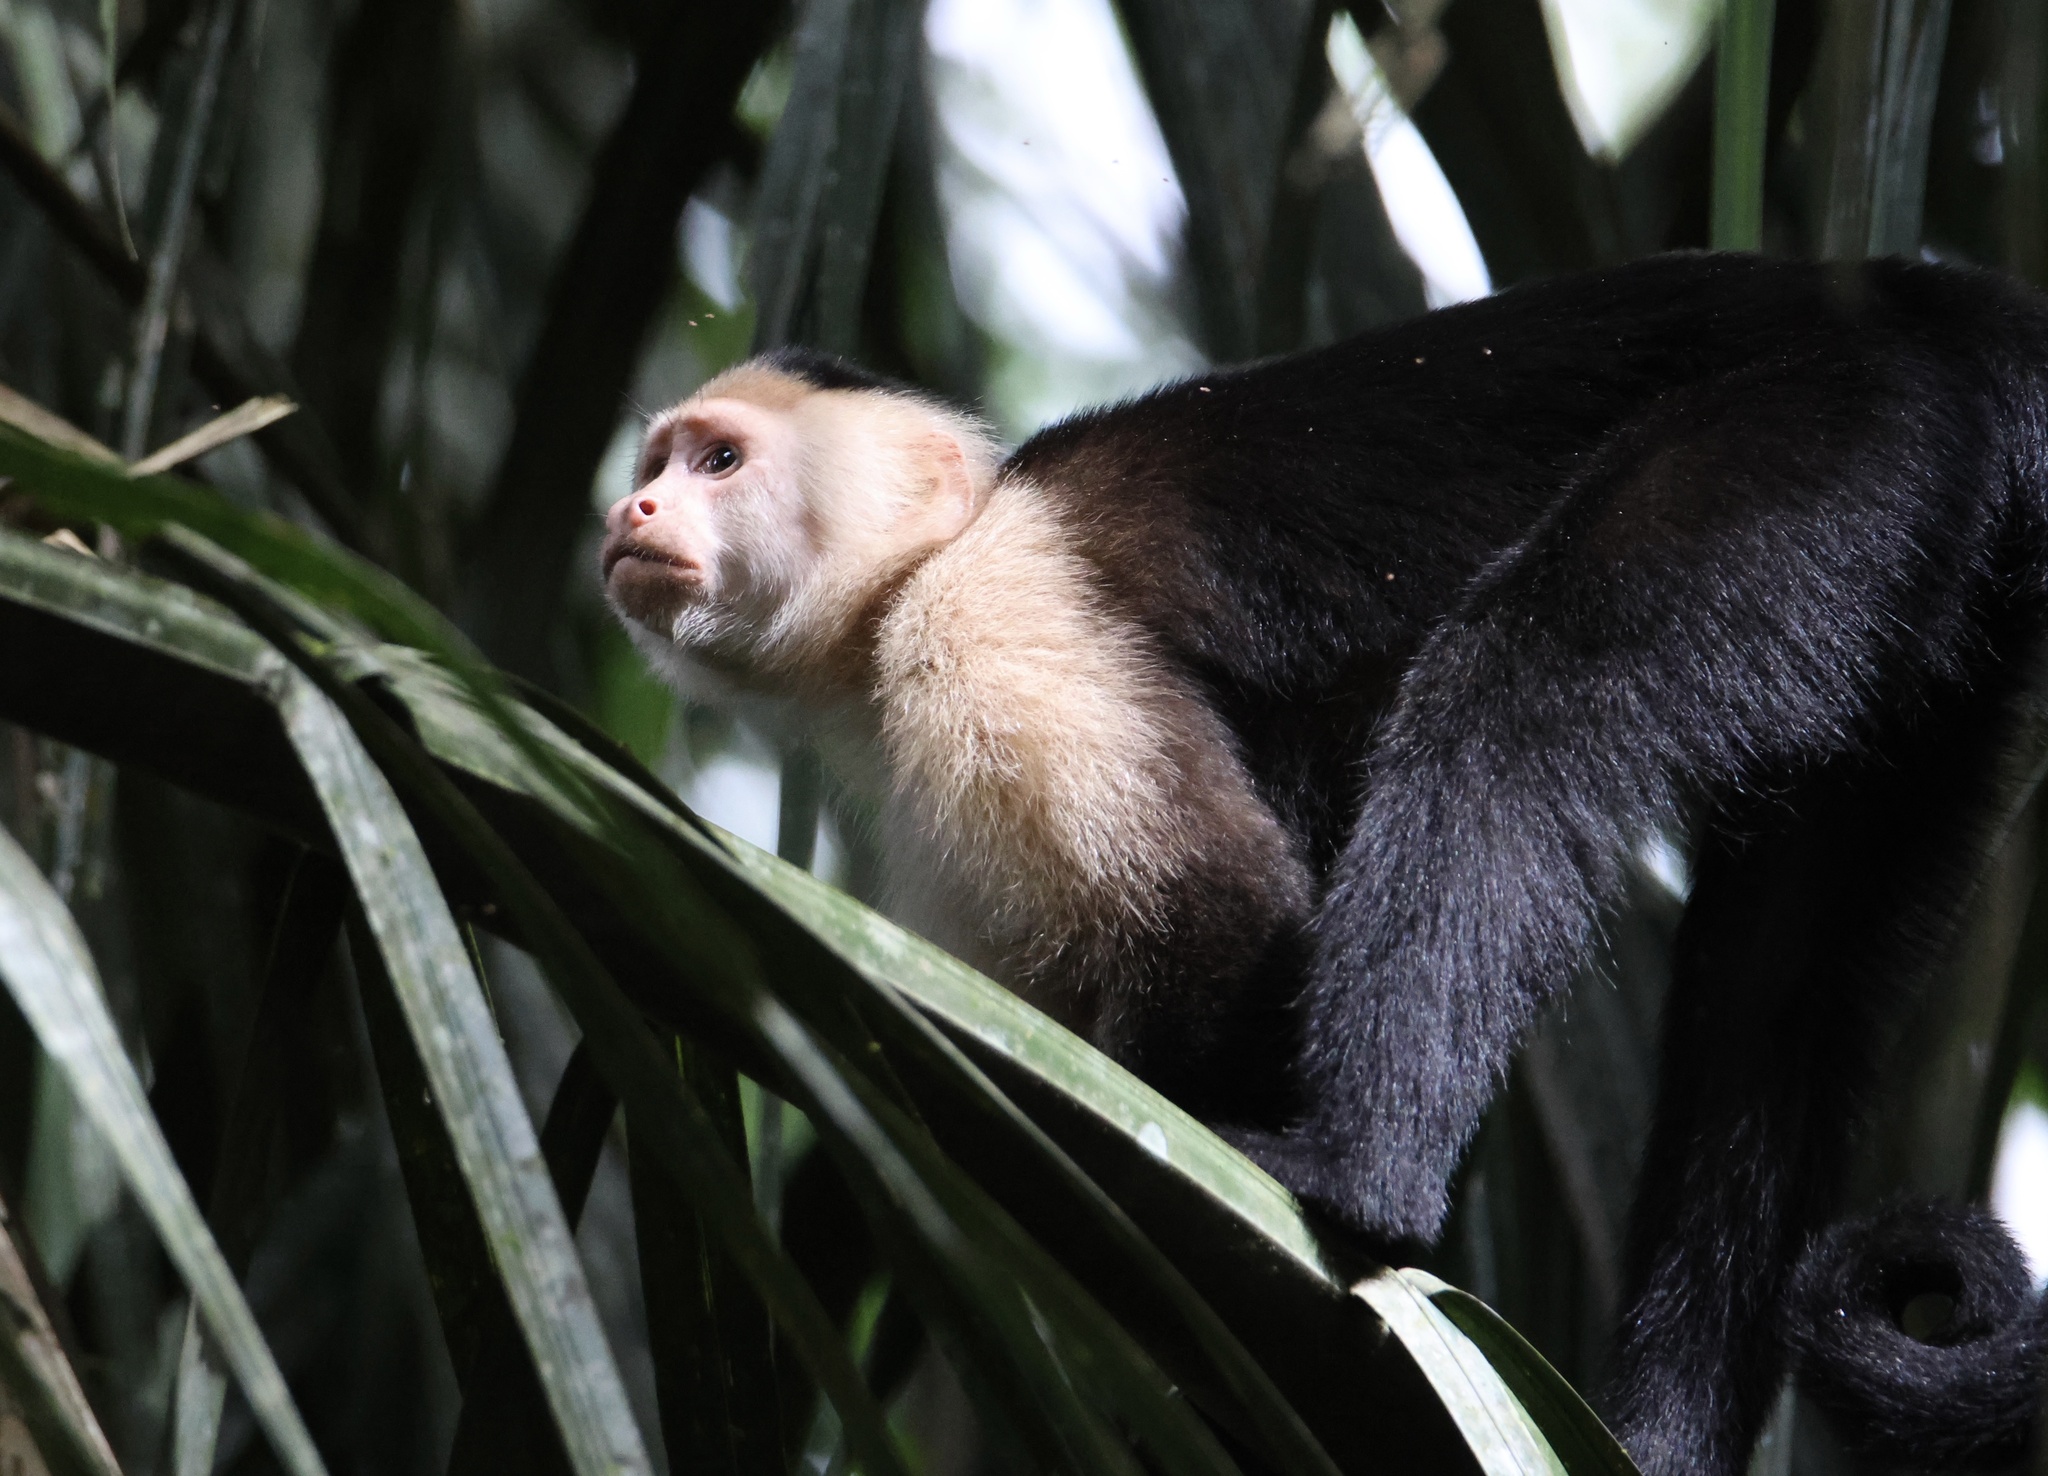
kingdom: Animalia
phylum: Chordata
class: Mammalia
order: Primates
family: Cebidae
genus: Cebus
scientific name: Cebus imitator
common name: Panamanian white-faced capuchin
